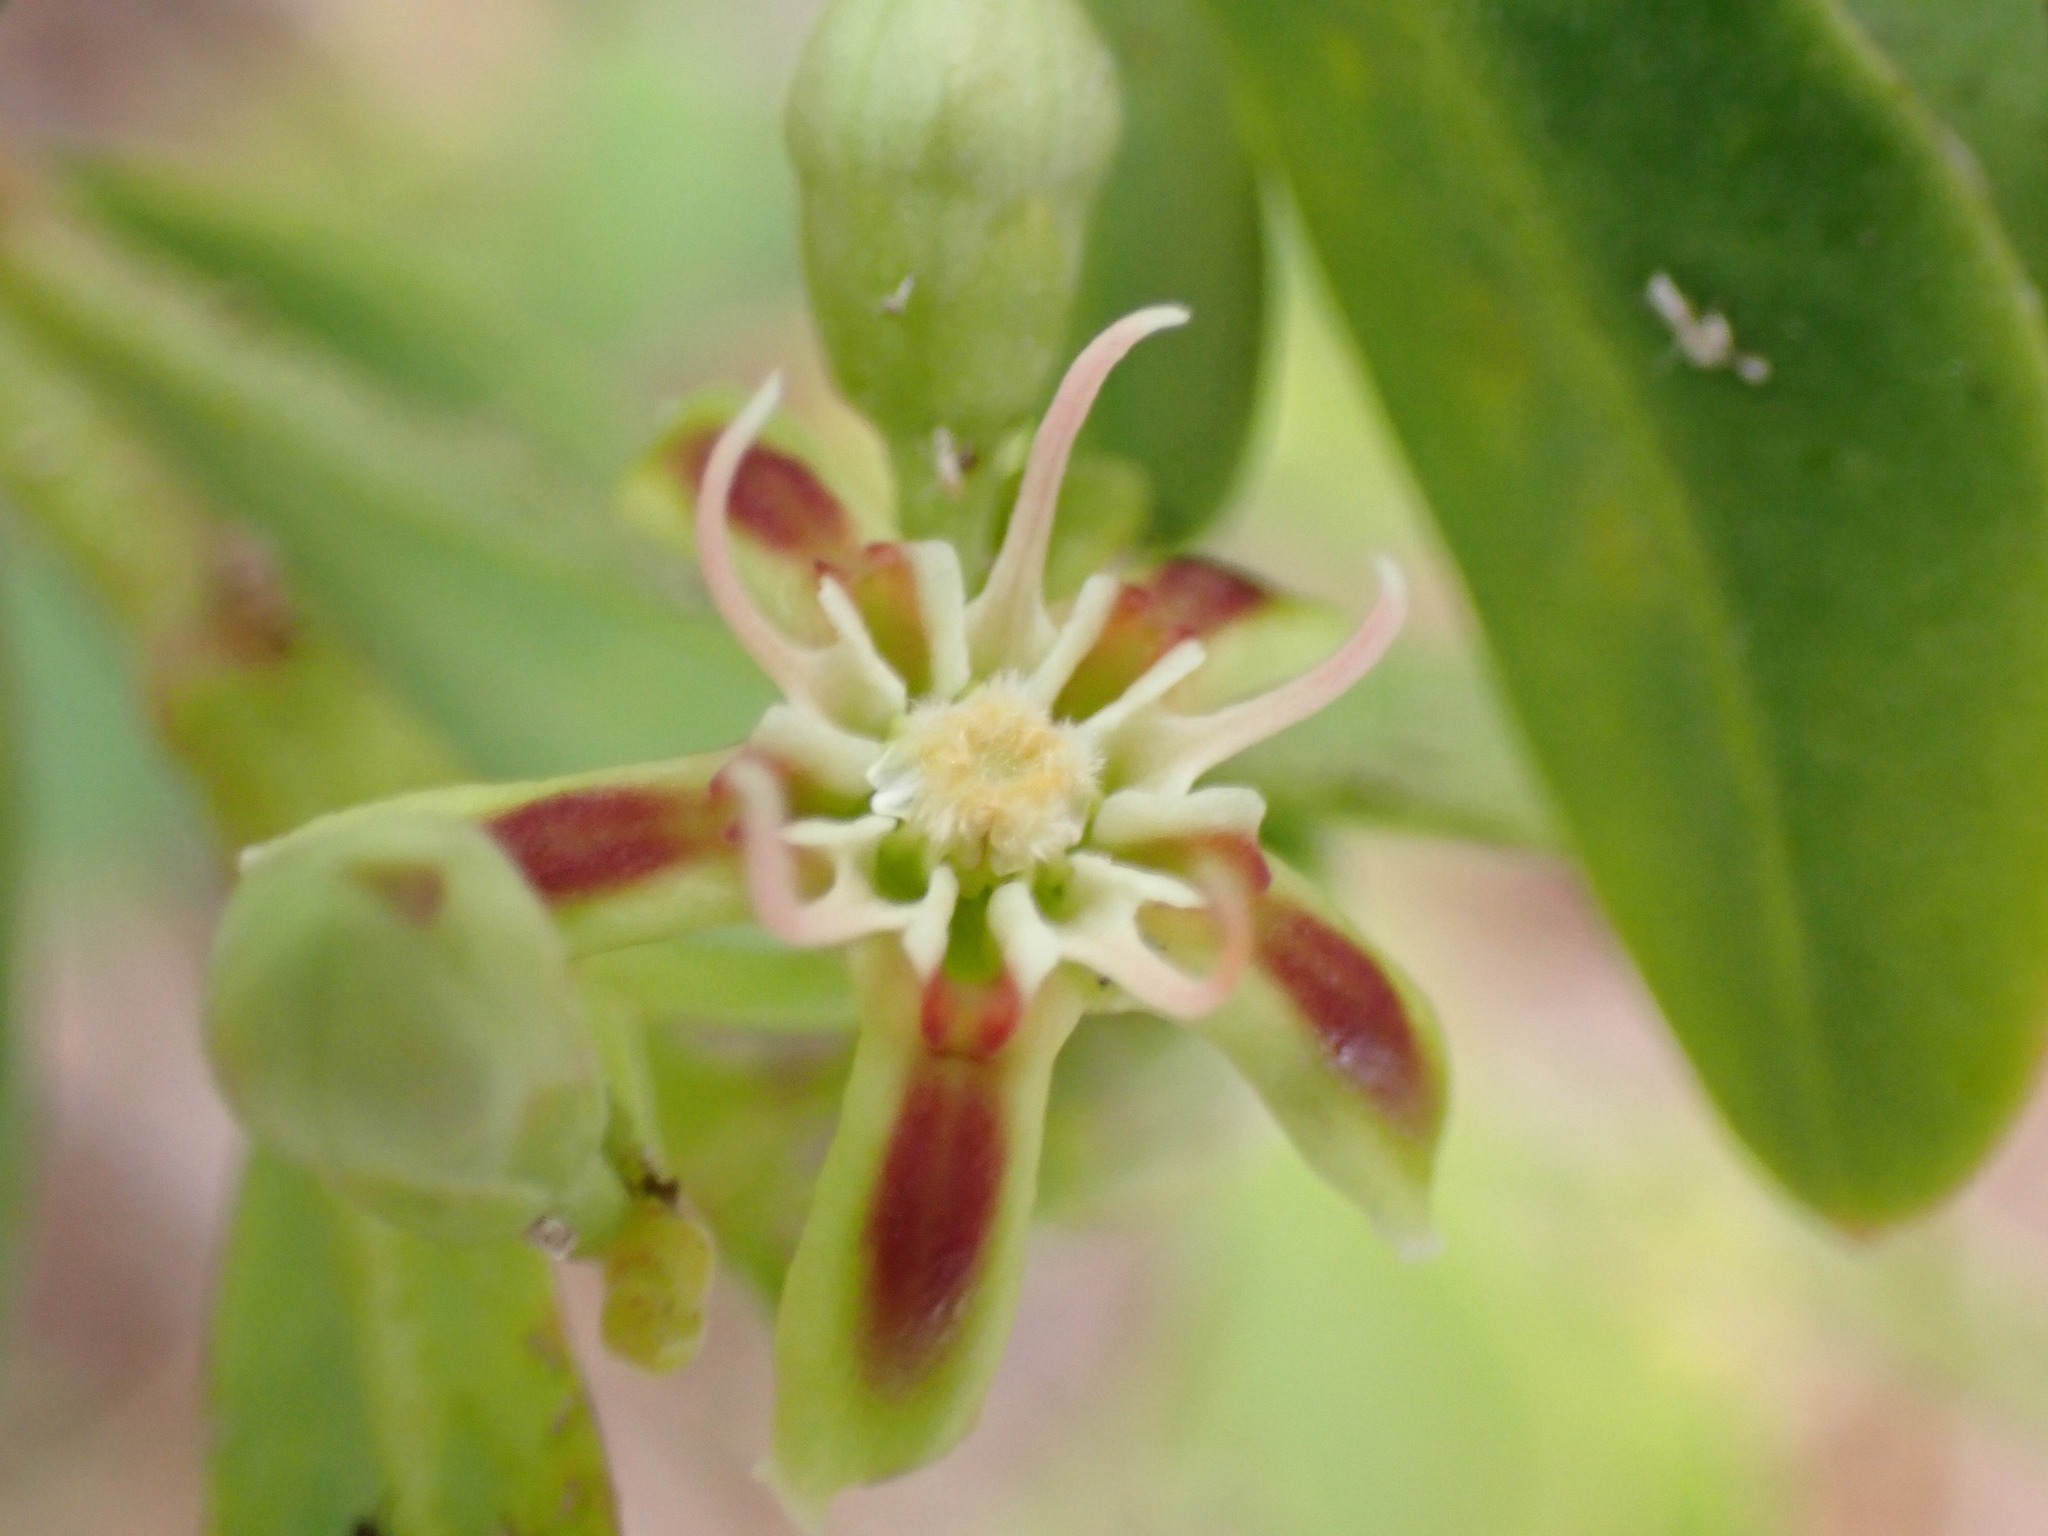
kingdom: Plantae
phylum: Tracheophyta
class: Magnoliopsida
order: Gentianales
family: Apocynaceae
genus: Periploca
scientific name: Periploca laevigata
